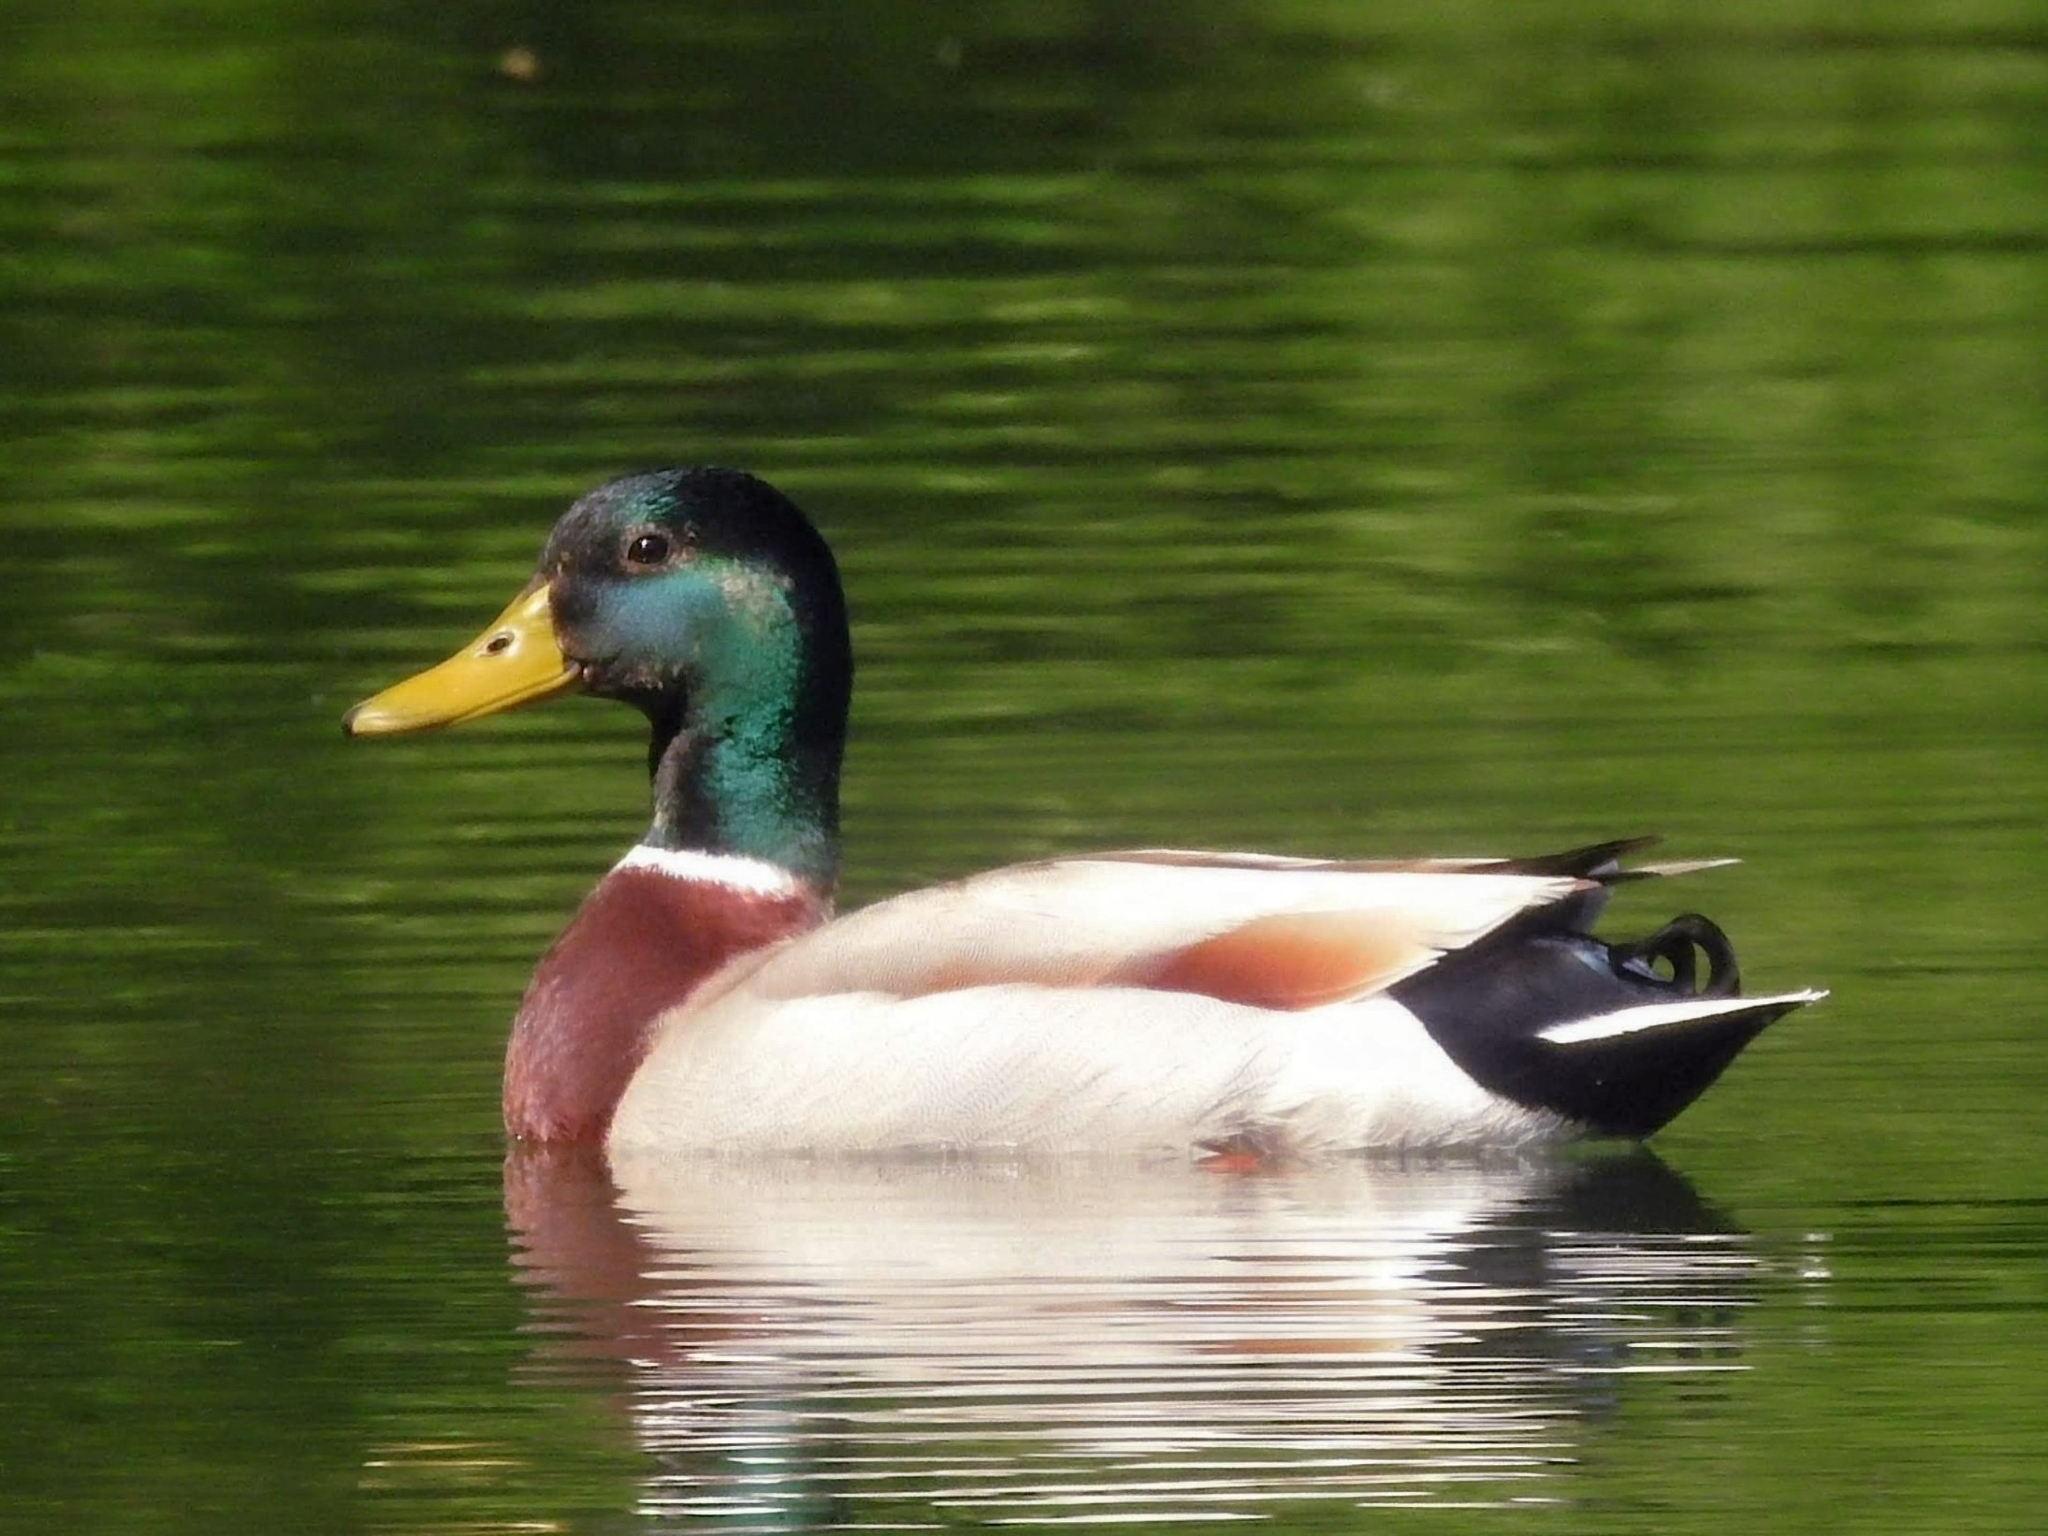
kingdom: Animalia
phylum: Chordata
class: Aves
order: Anseriformes
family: Anatidae
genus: Anas
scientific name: Anas platyrhynchos
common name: Mallard
